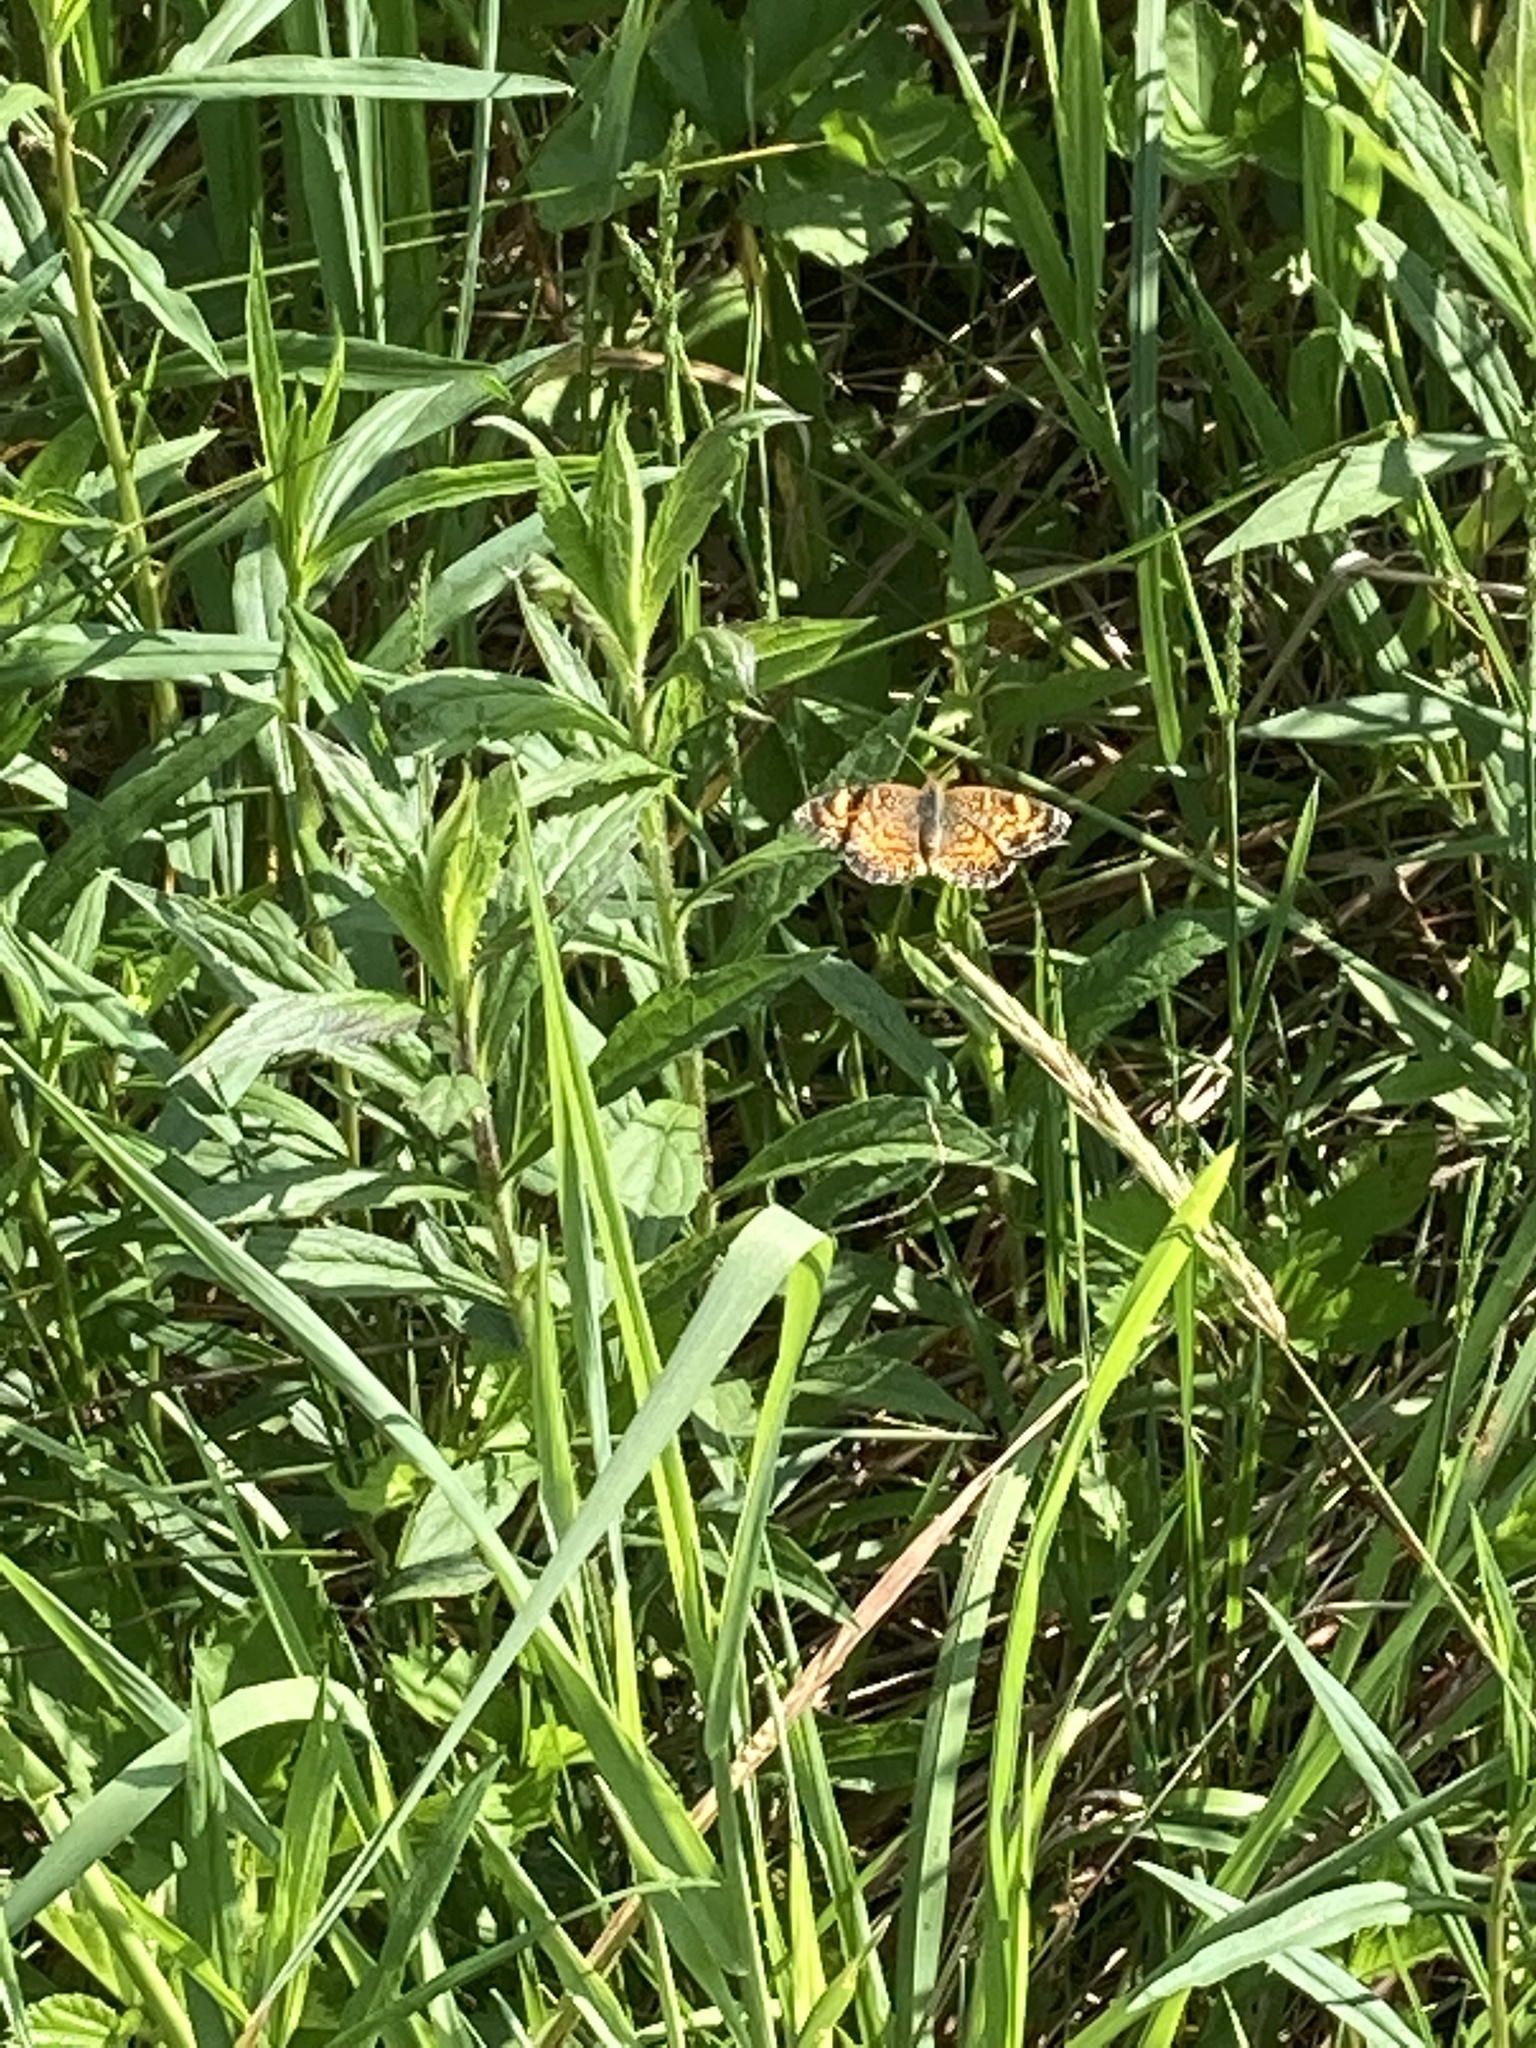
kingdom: Animalia
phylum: Arthropoda
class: Insecta
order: Lepidoptera
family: Nymphalidae
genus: Phyciodes
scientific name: Phyciodes tharos
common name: Pearl crescent
